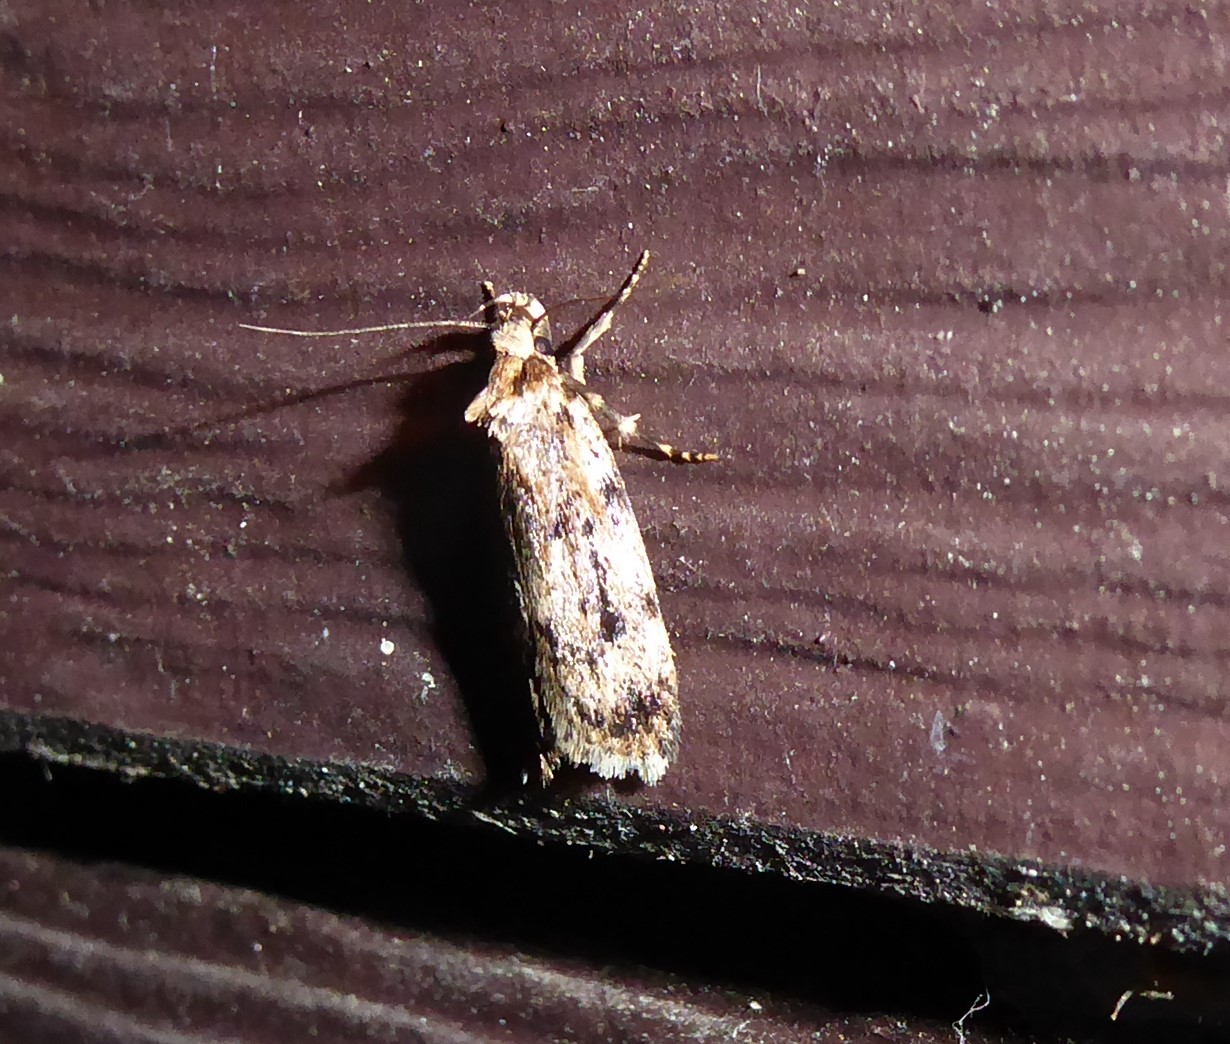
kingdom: Animalia
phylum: Arthropoda
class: Insecta
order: Lepidoptera
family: Oecophoridae
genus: Barea
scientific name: Barea exarcha
